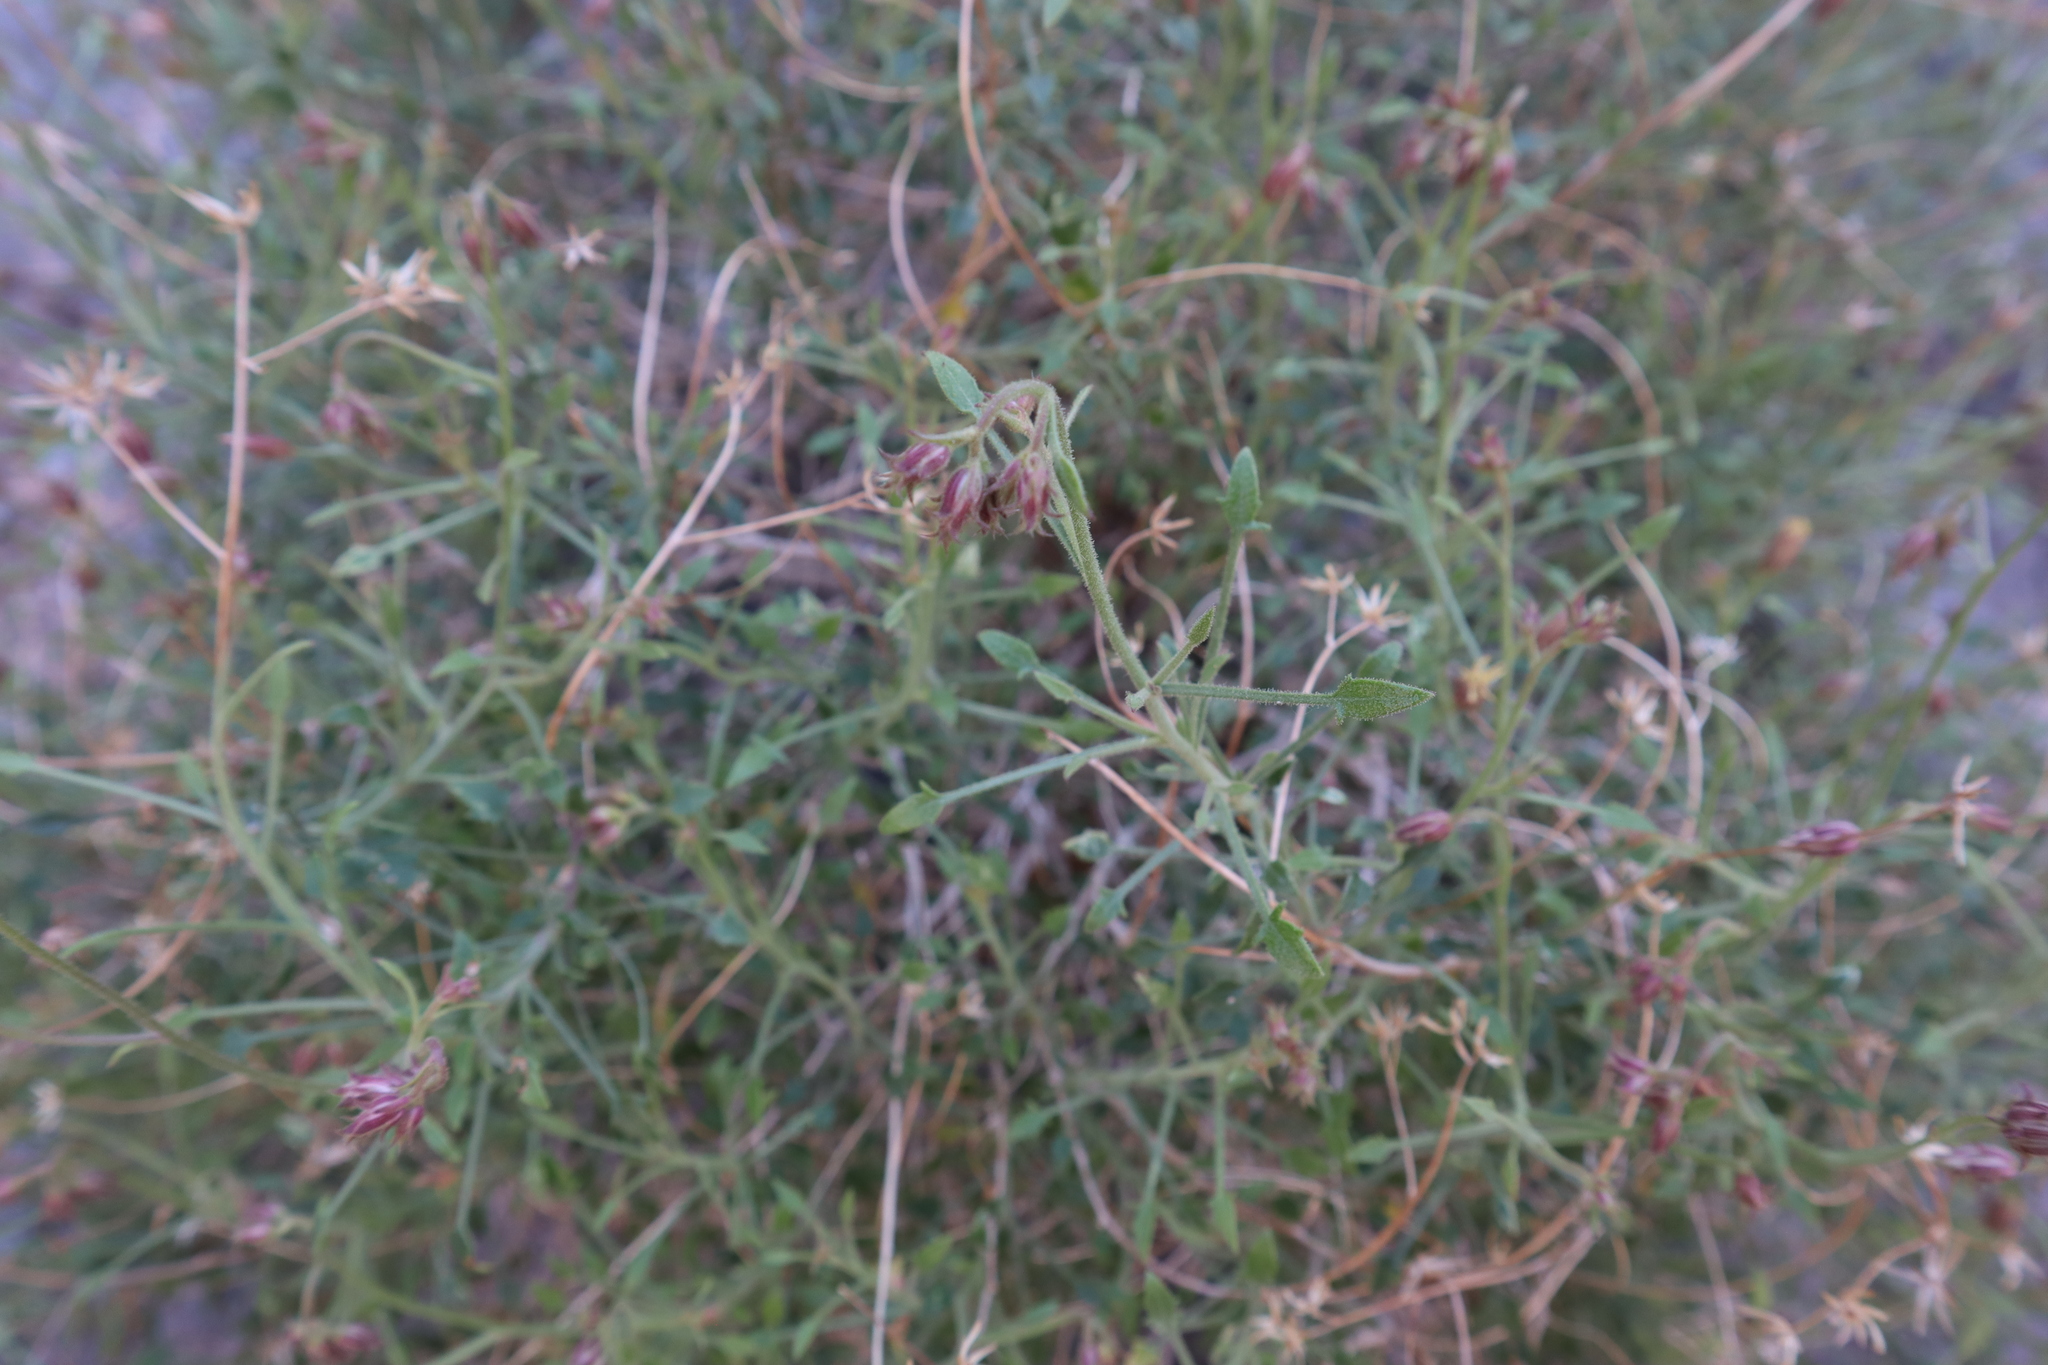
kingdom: Plantae
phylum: Tracheophyta
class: Magnoliopsida
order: Asterales
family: Asteraceae
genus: Pleurocoronis
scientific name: Pleurocoronis pluriseta
